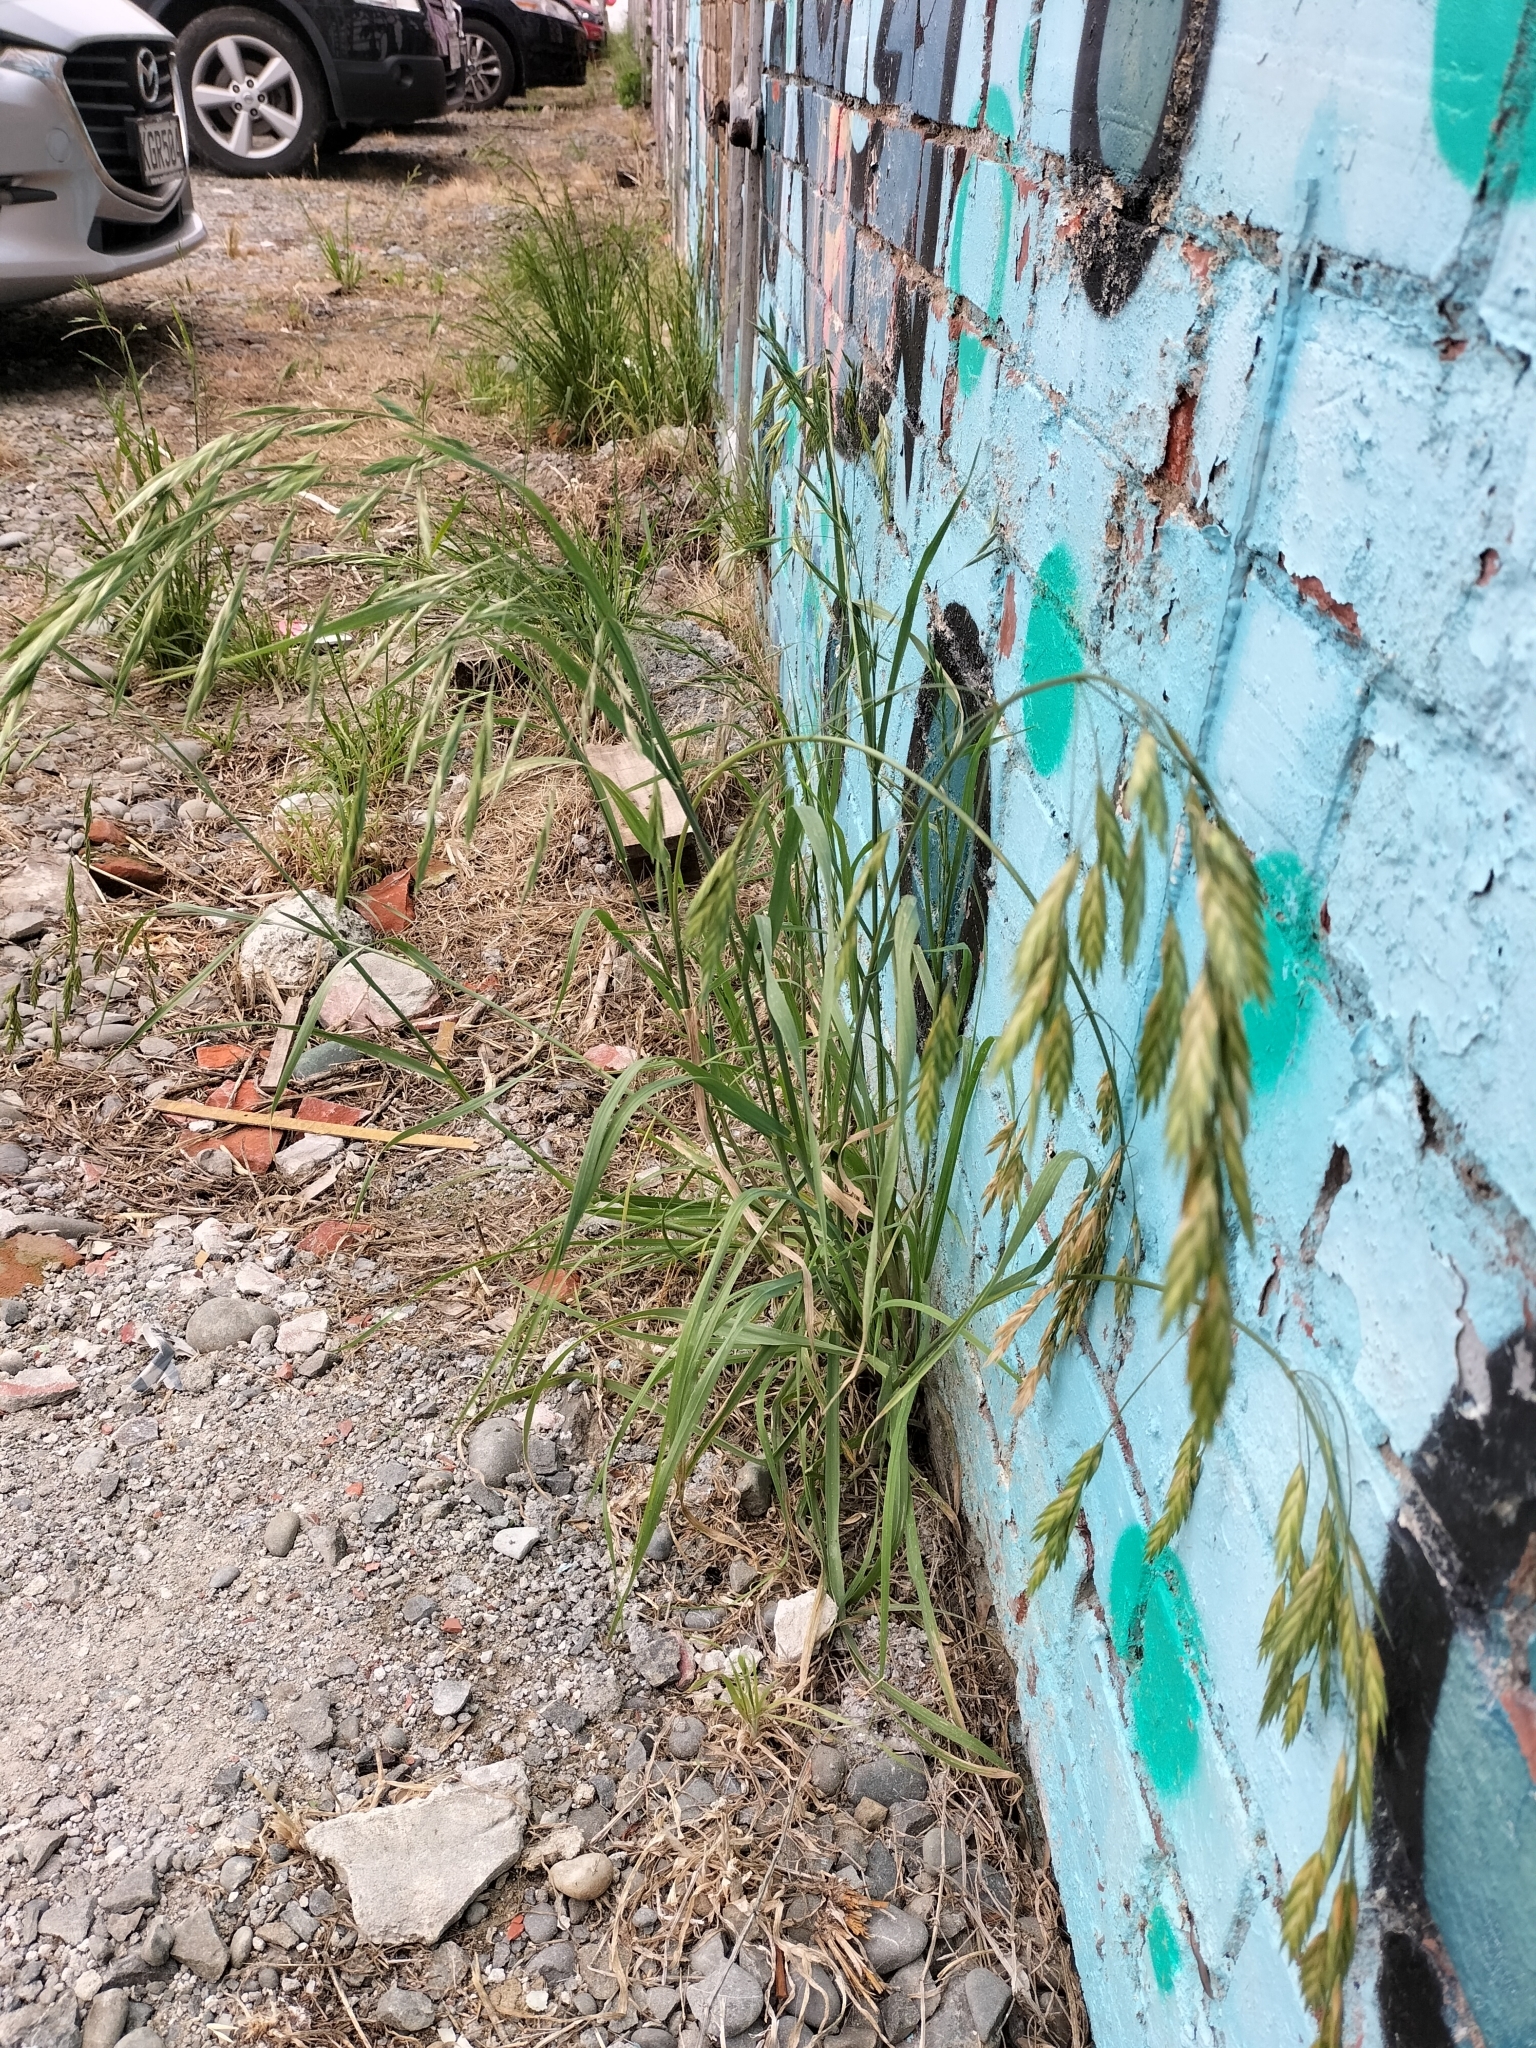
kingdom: Plantae
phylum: Tracheophyta
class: Liliopsida
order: Poales
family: Poaceae
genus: Bromus
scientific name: Bromus catharticus
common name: Rescuegrass
